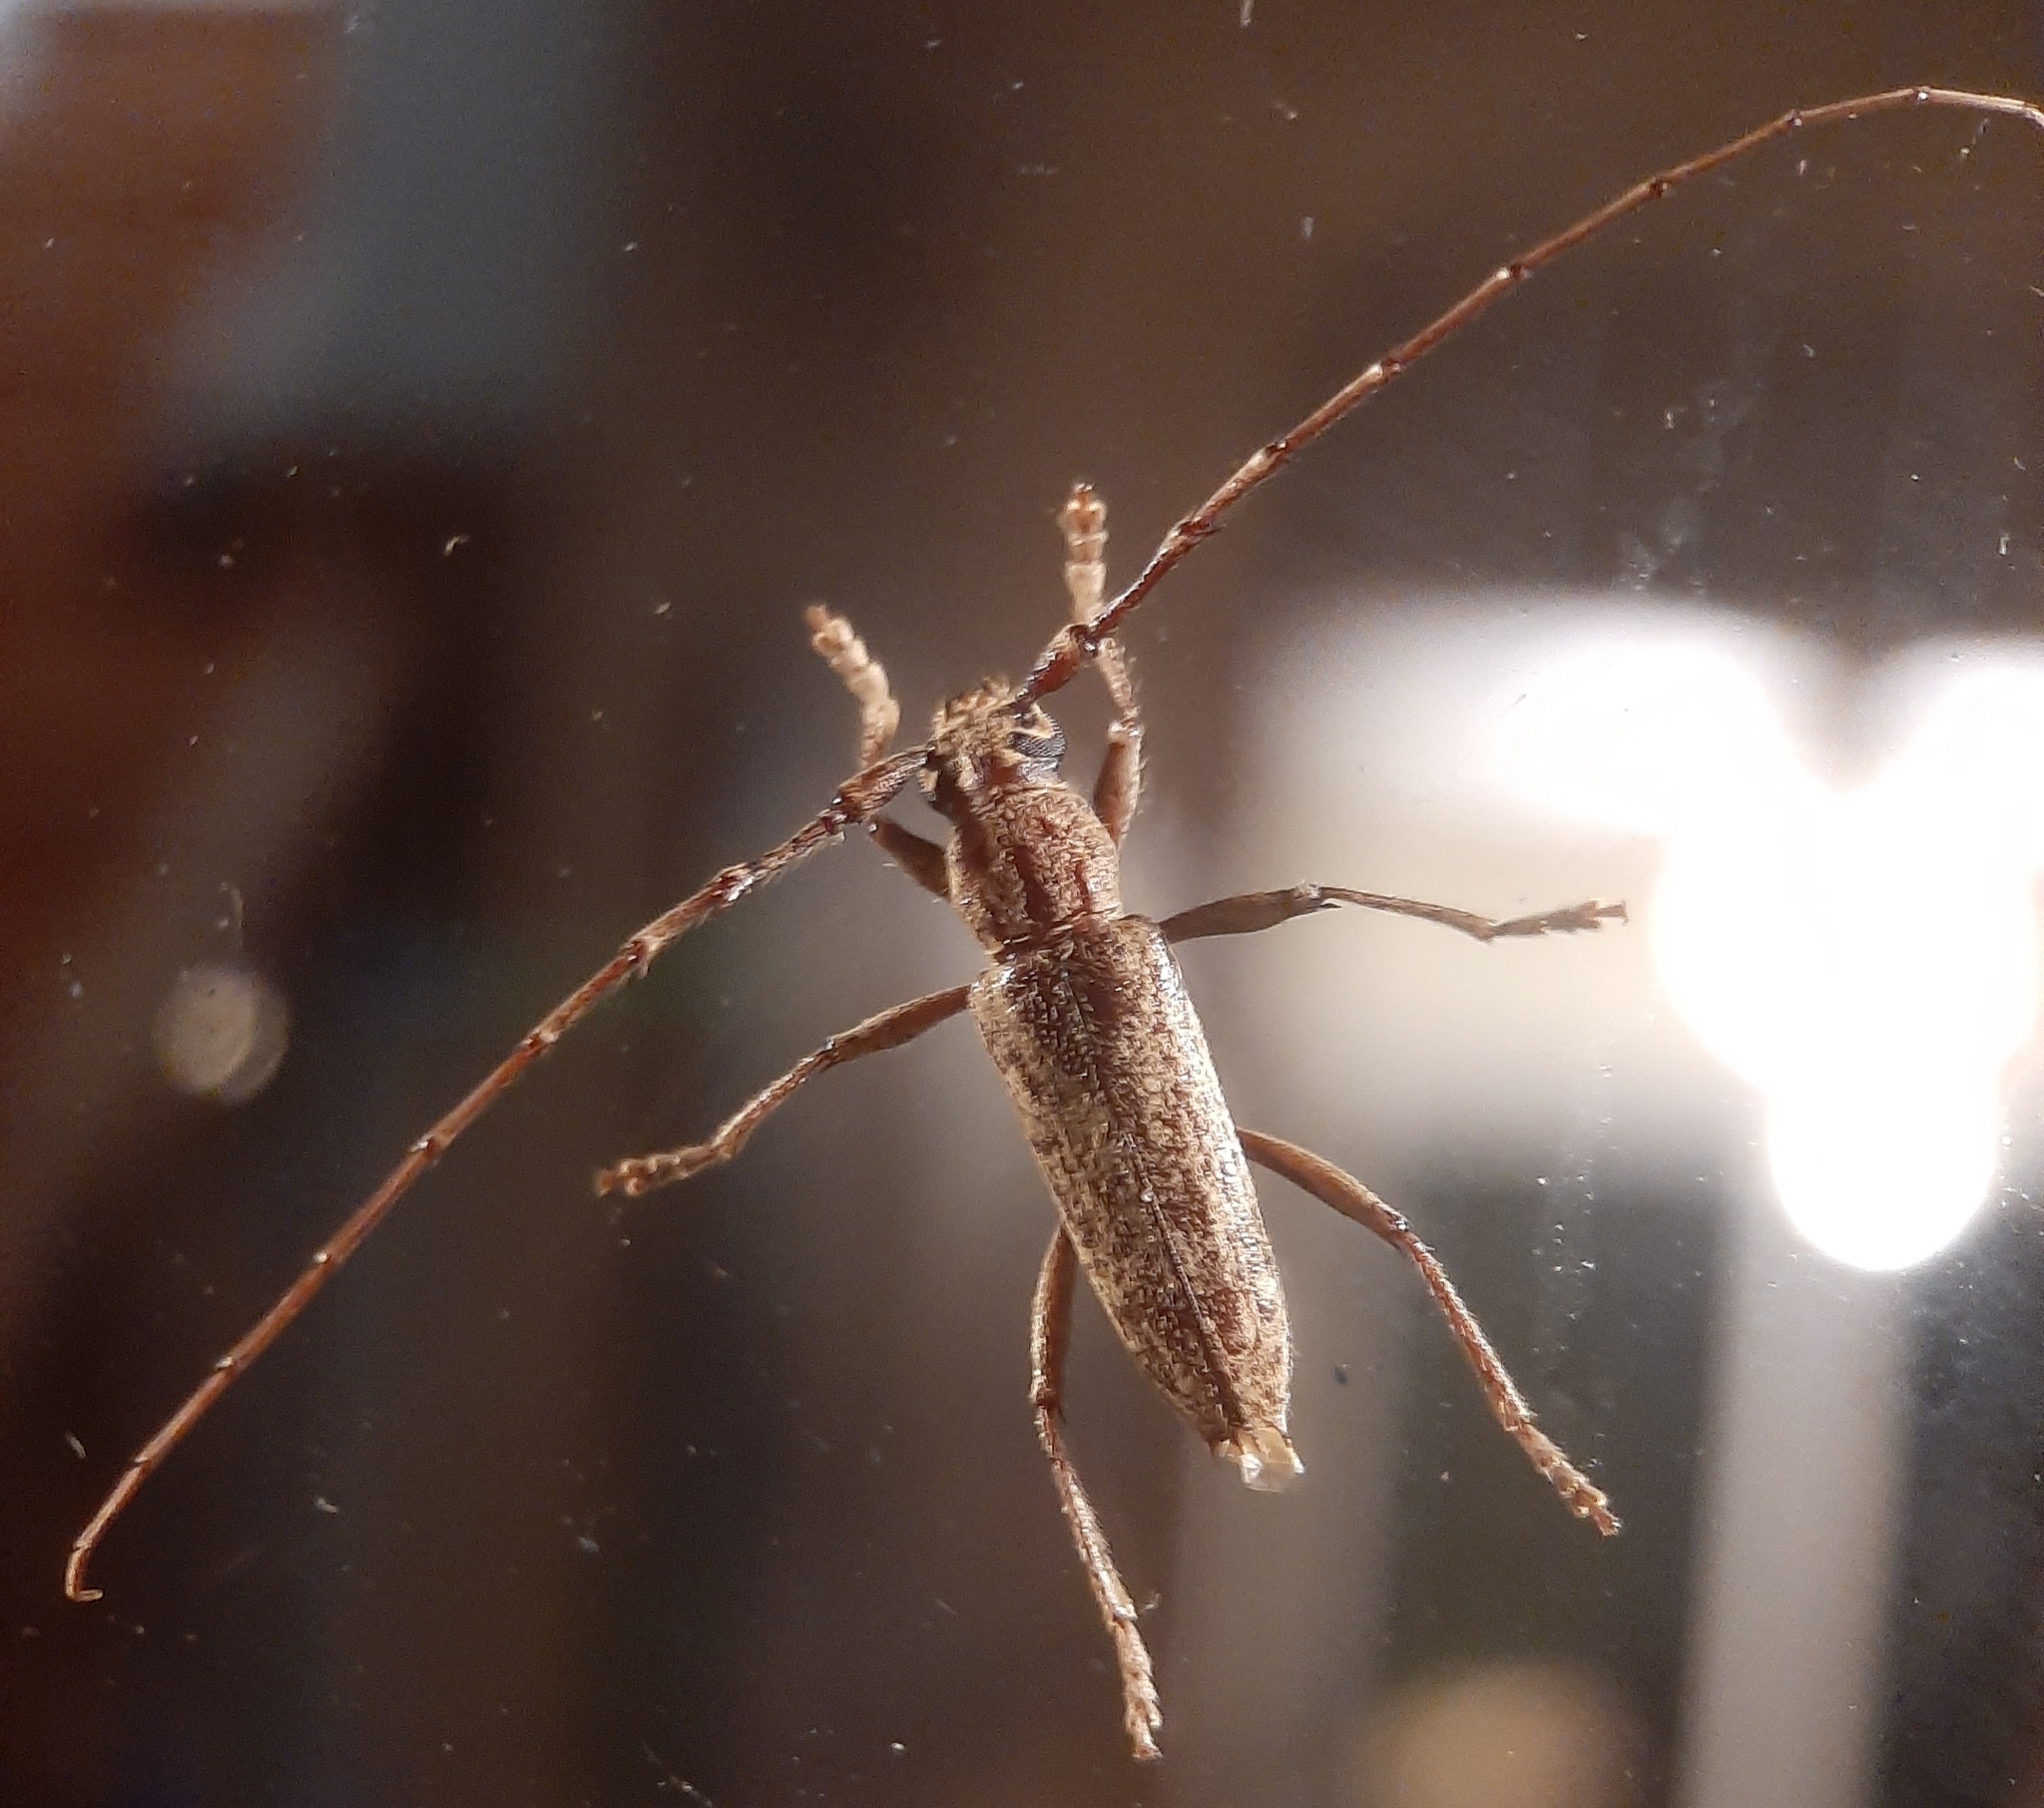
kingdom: Animalia
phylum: Arthropoda
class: Insecta
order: Coleoptera
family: Cerambycidae
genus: Elaphidion
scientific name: Elaphidion mucronatum
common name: Spined oak borer
